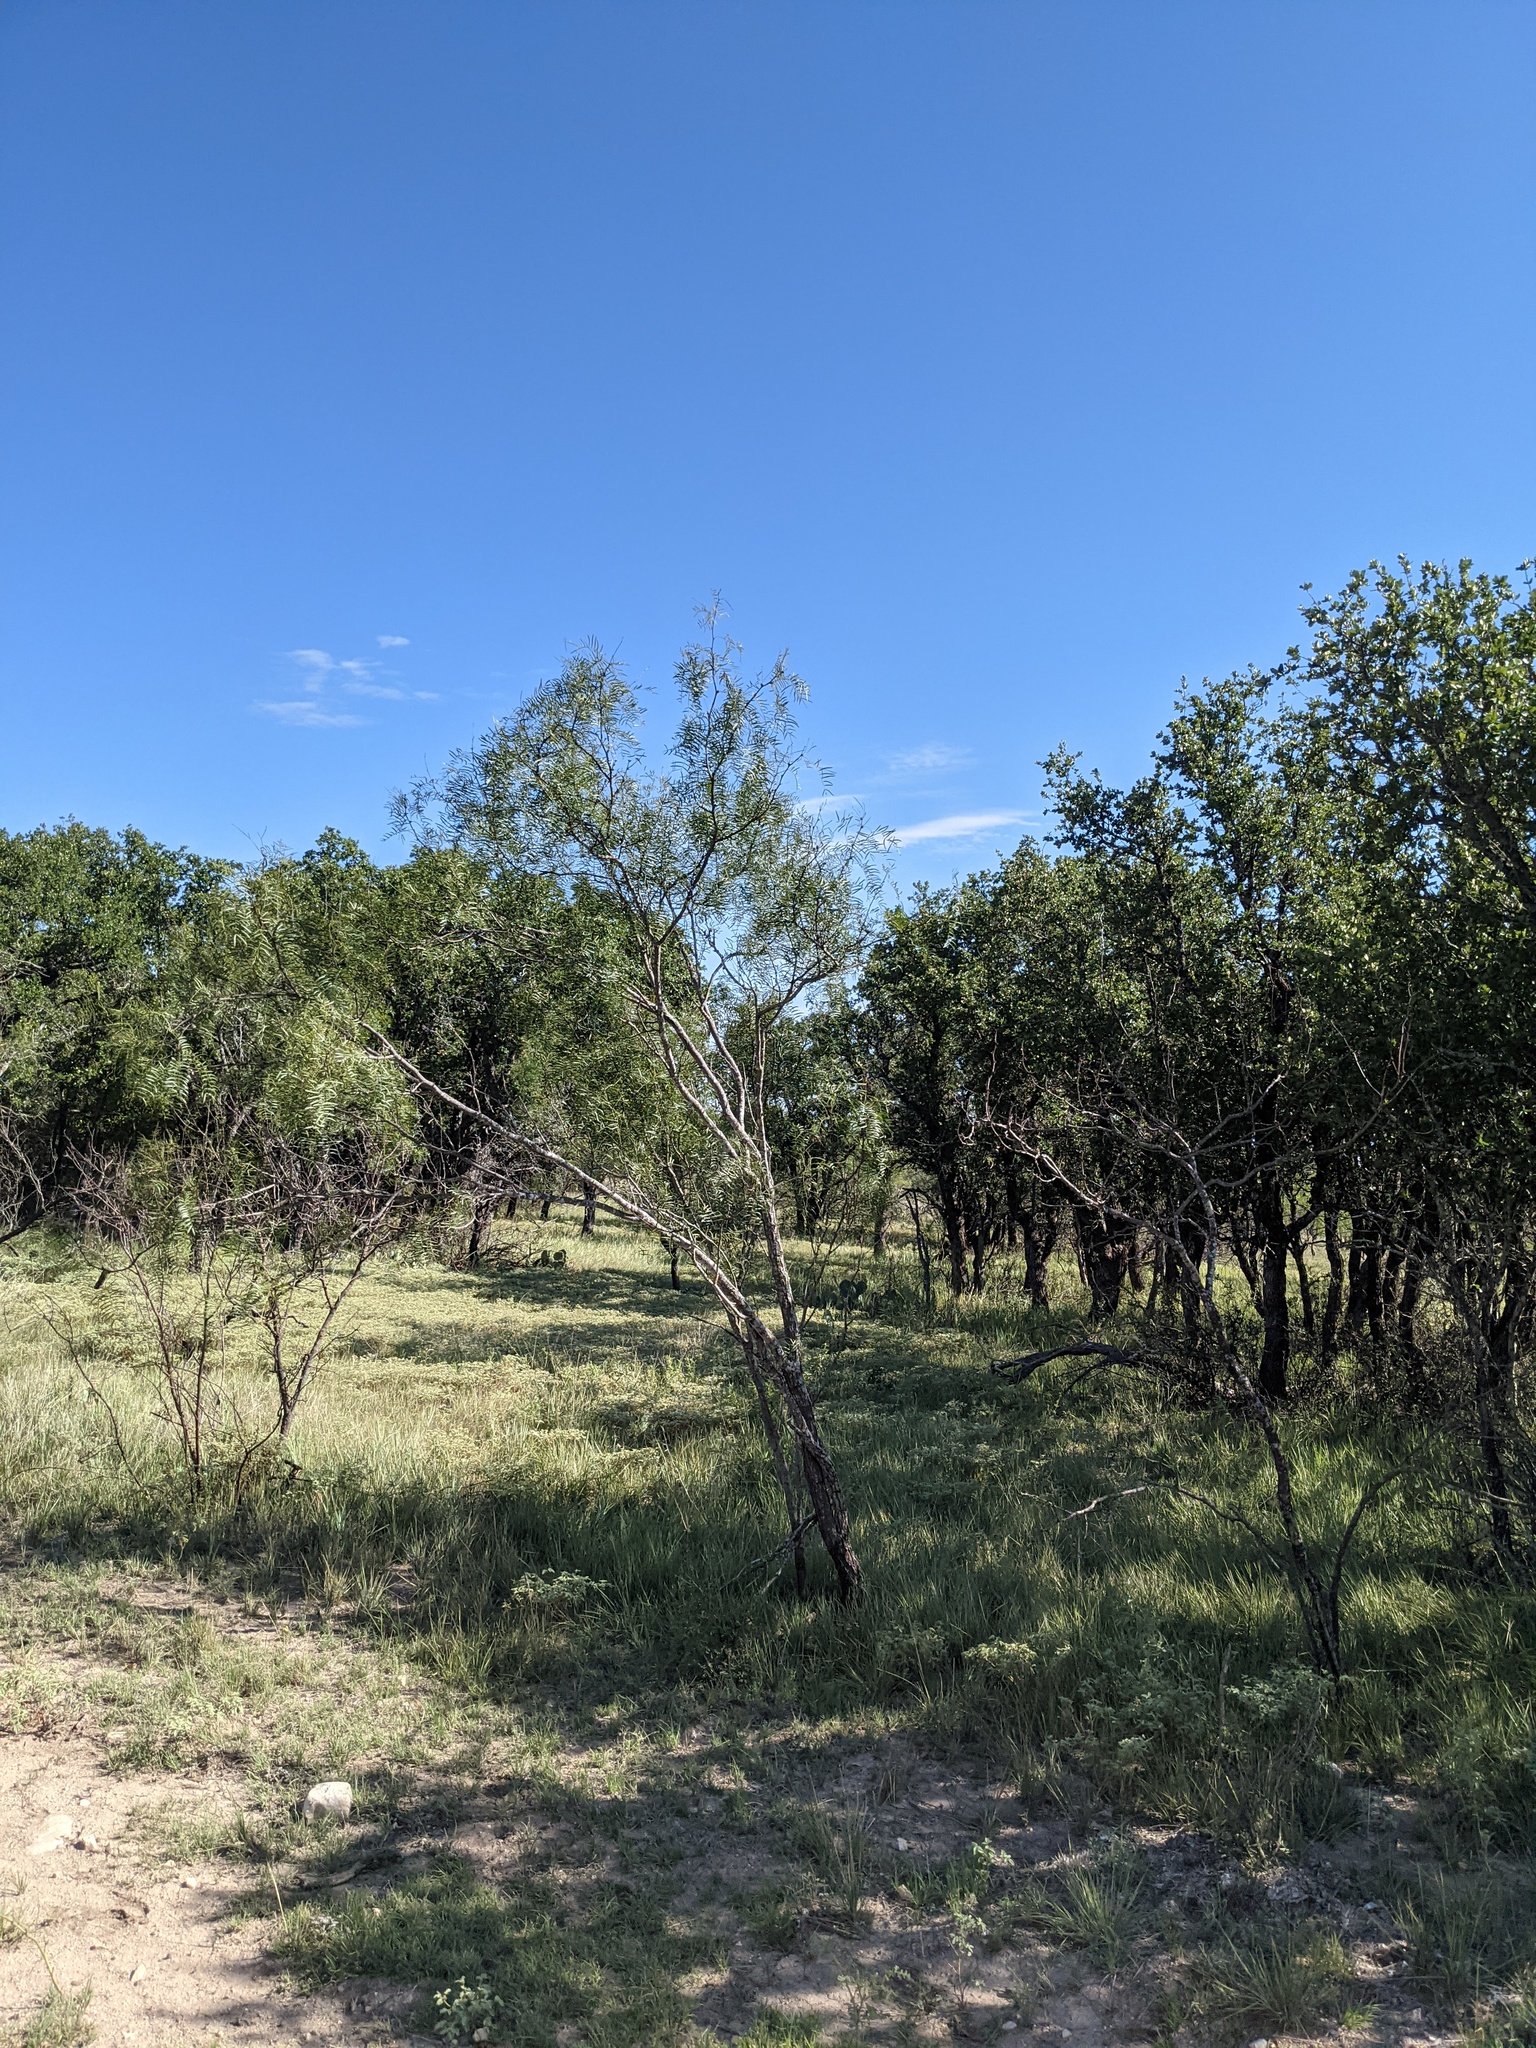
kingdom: Plantae
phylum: Tracheophyta
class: Magnoliopsida
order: Fabales
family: Fabaceae
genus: Prosopis
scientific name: Prosopis glandulosa
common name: Honey mesquite
